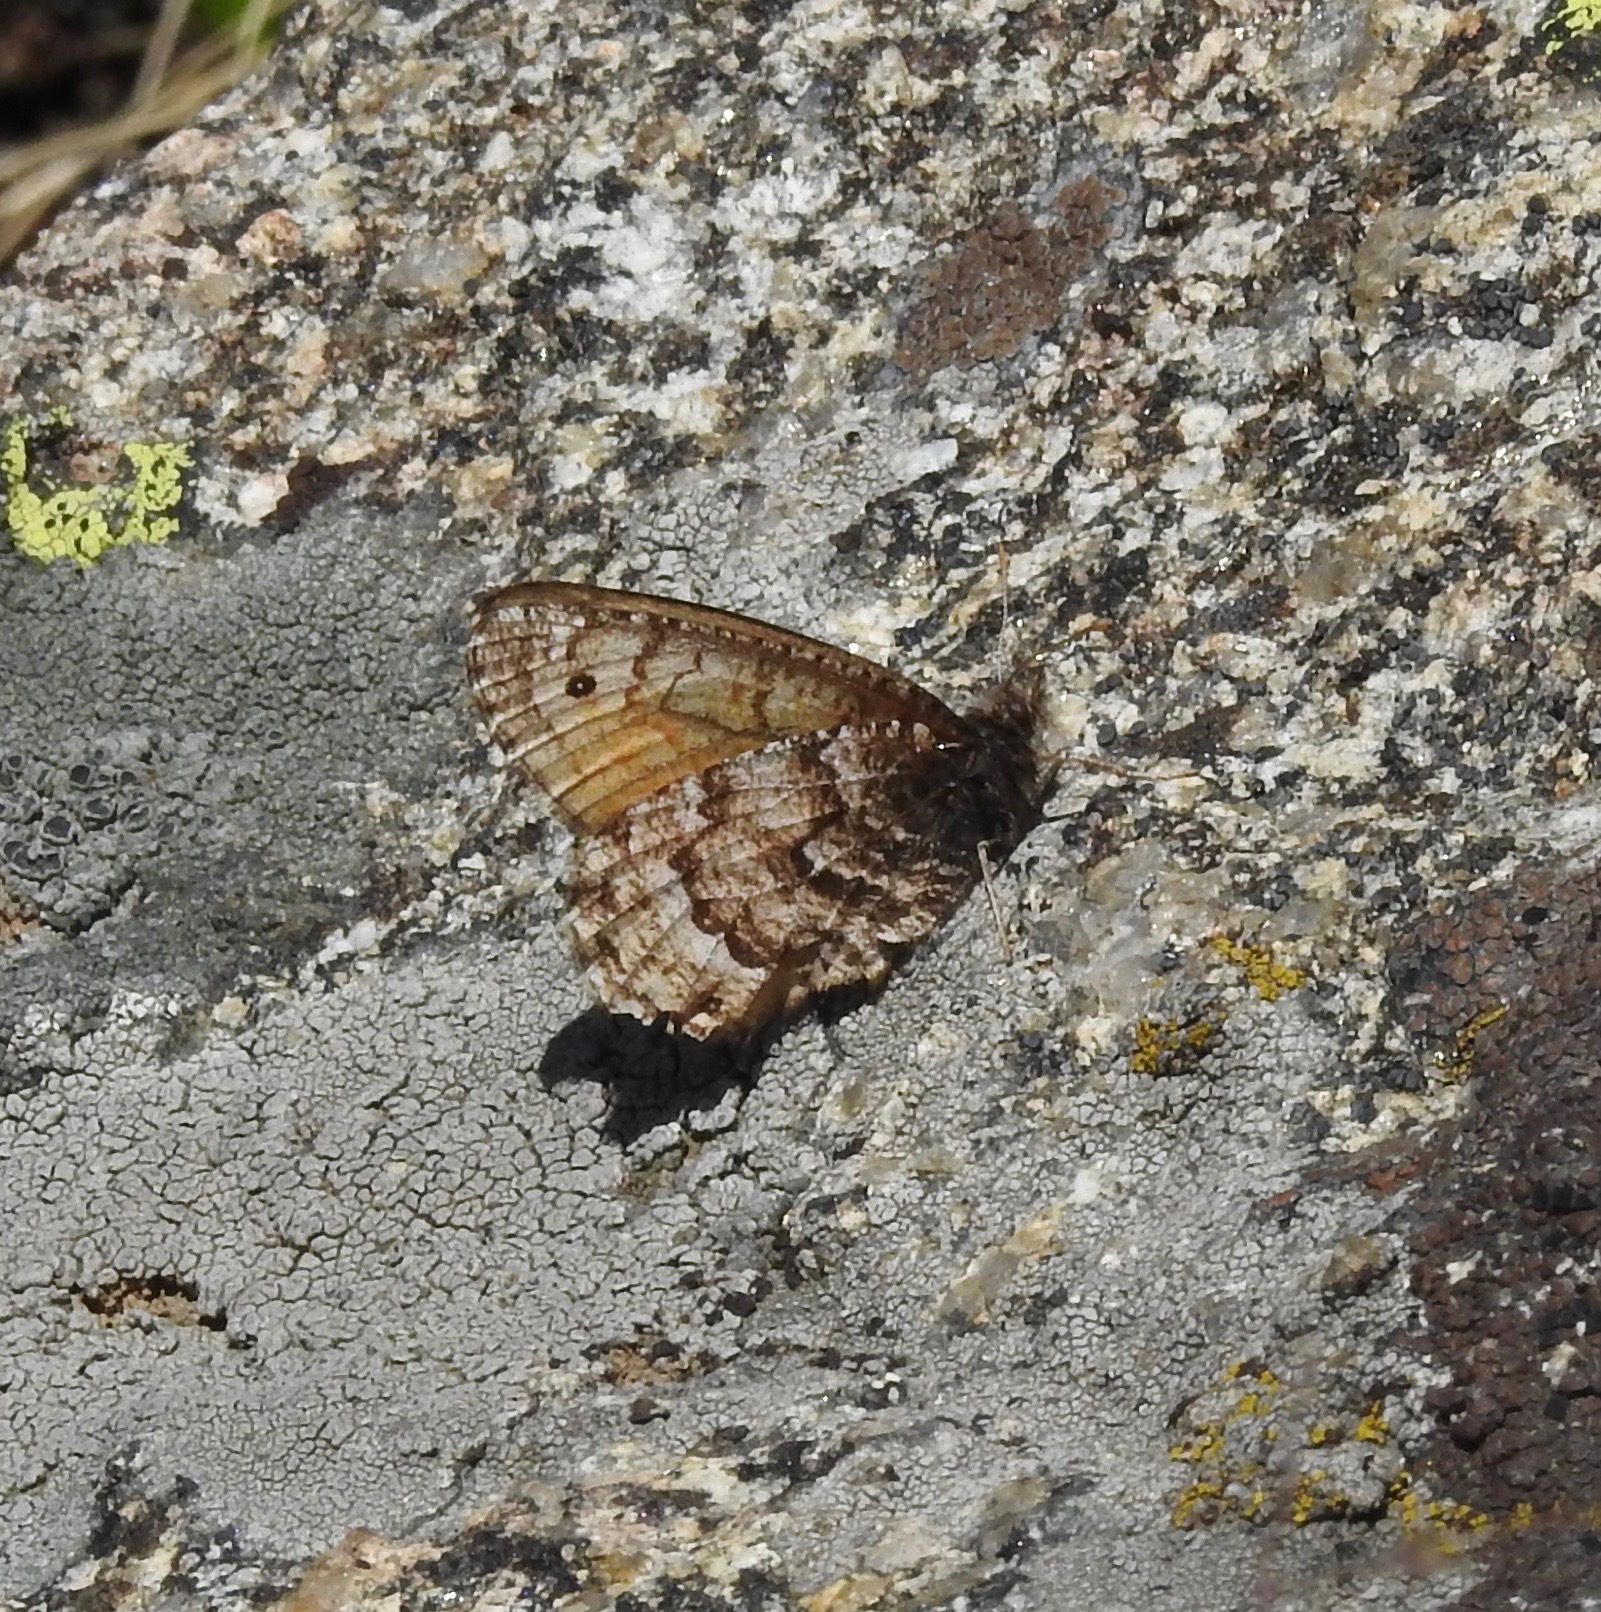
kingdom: Animalia
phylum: Arthropoda
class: Insecta
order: Lepidoptera
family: Nymphalidae
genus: Oeneis
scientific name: Oeneis chryxus
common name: Chryxus arctic
